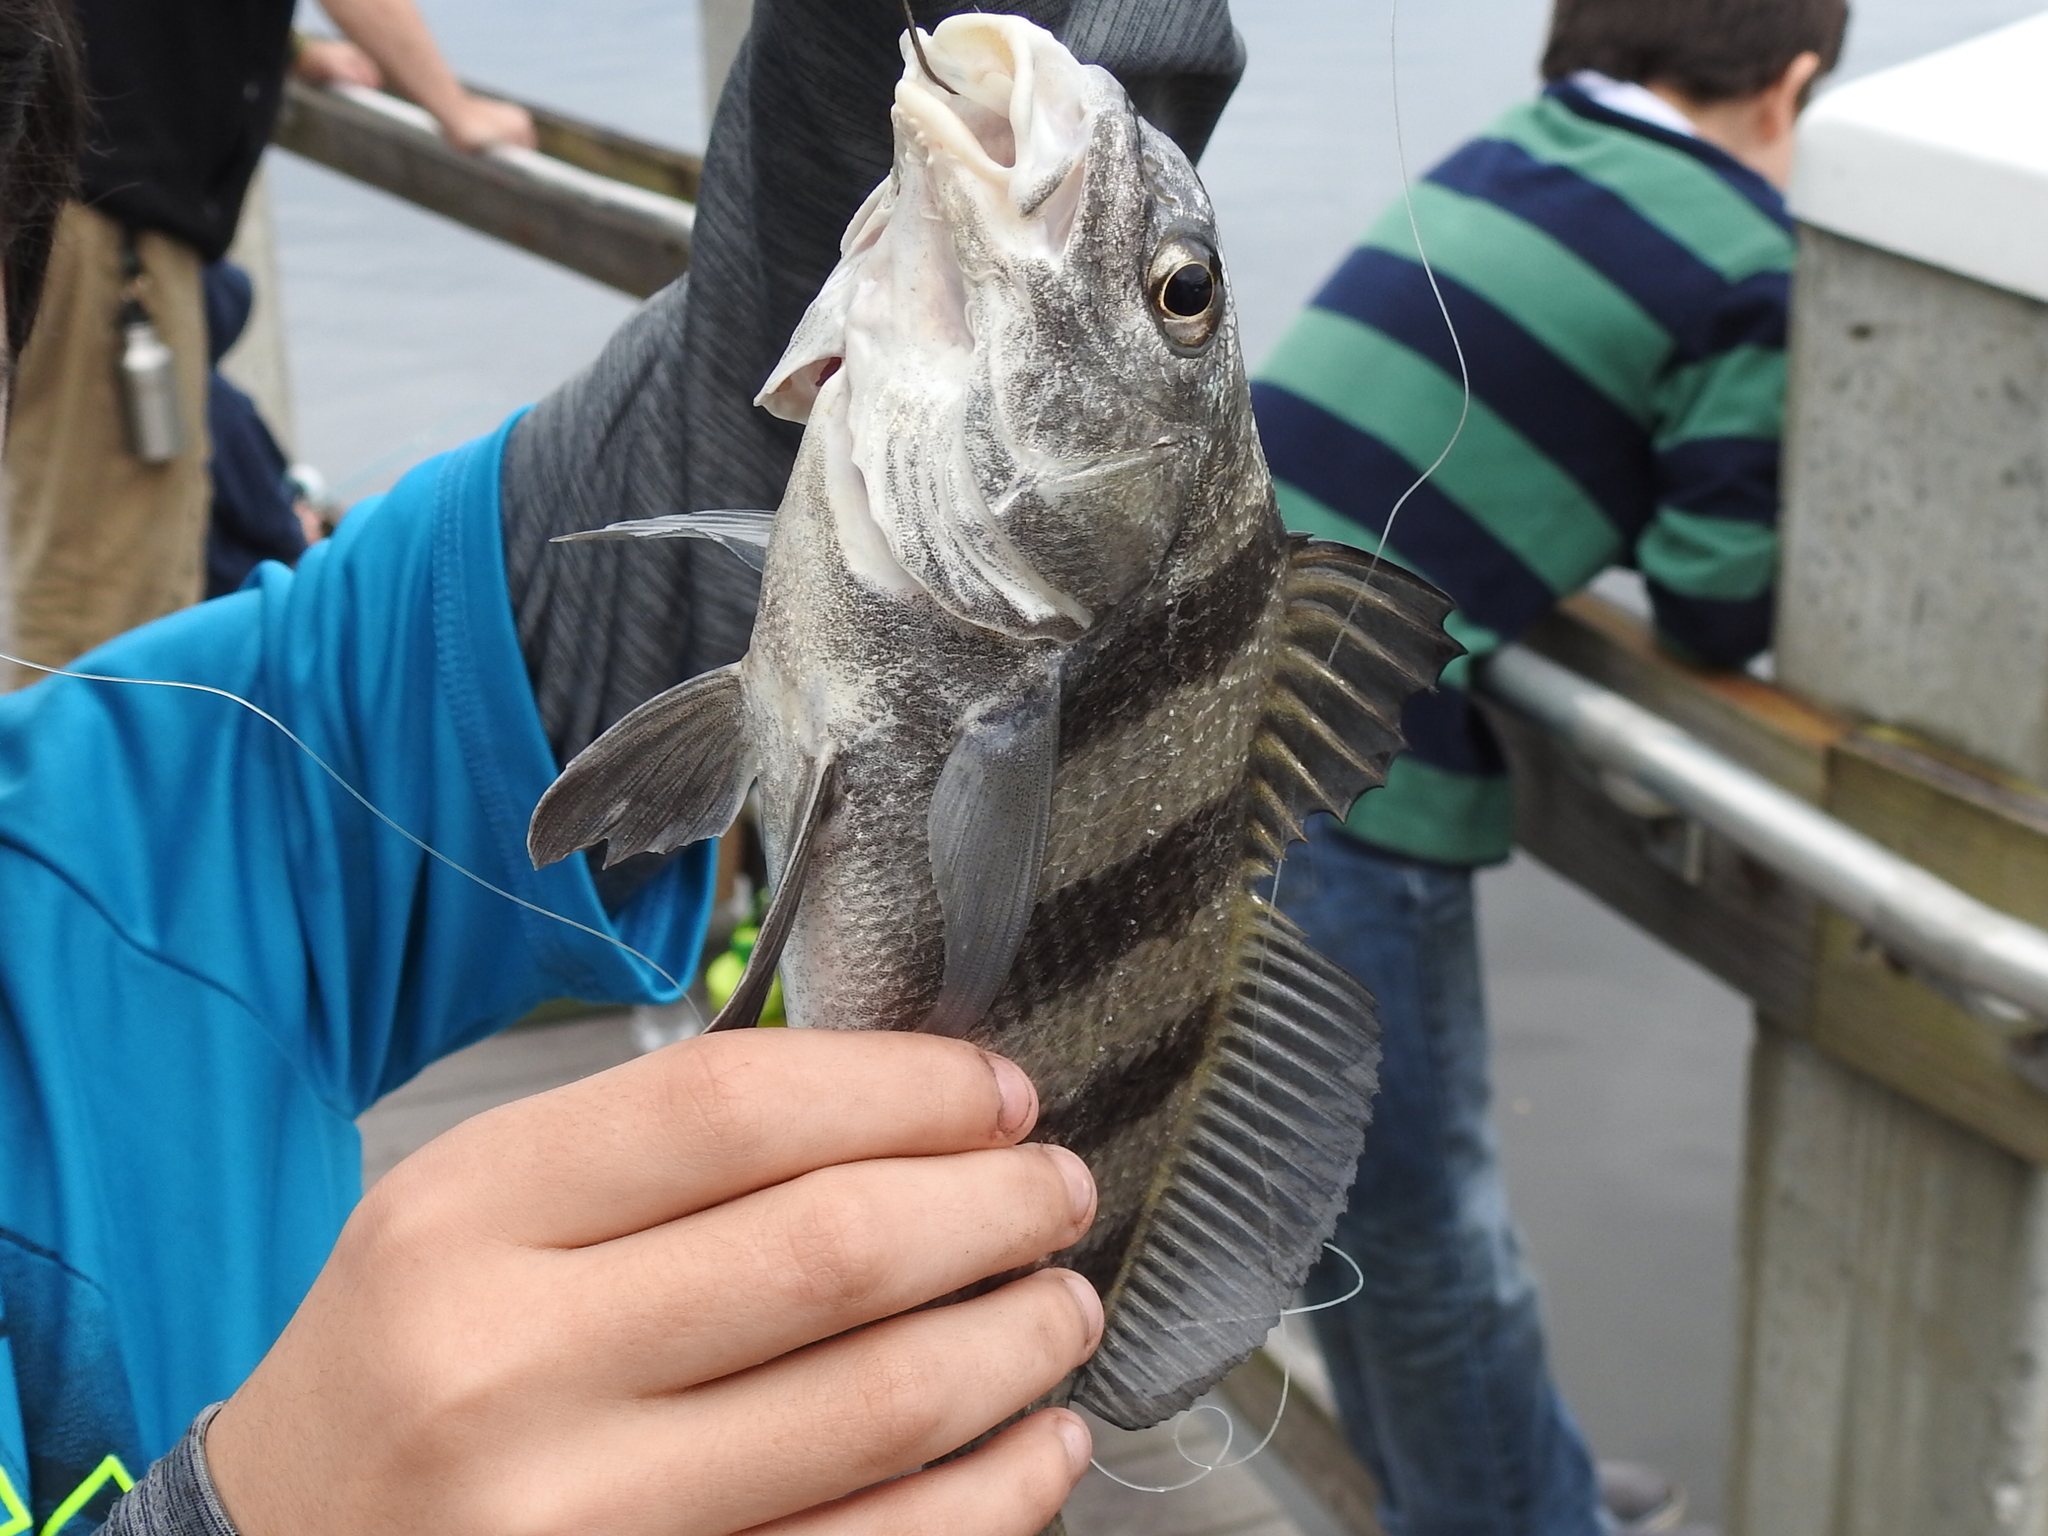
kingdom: Animalia
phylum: Chordata
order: Perciformes
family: Sciaenidae
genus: Pogonias
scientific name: Pogonias cromis
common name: Black drum
